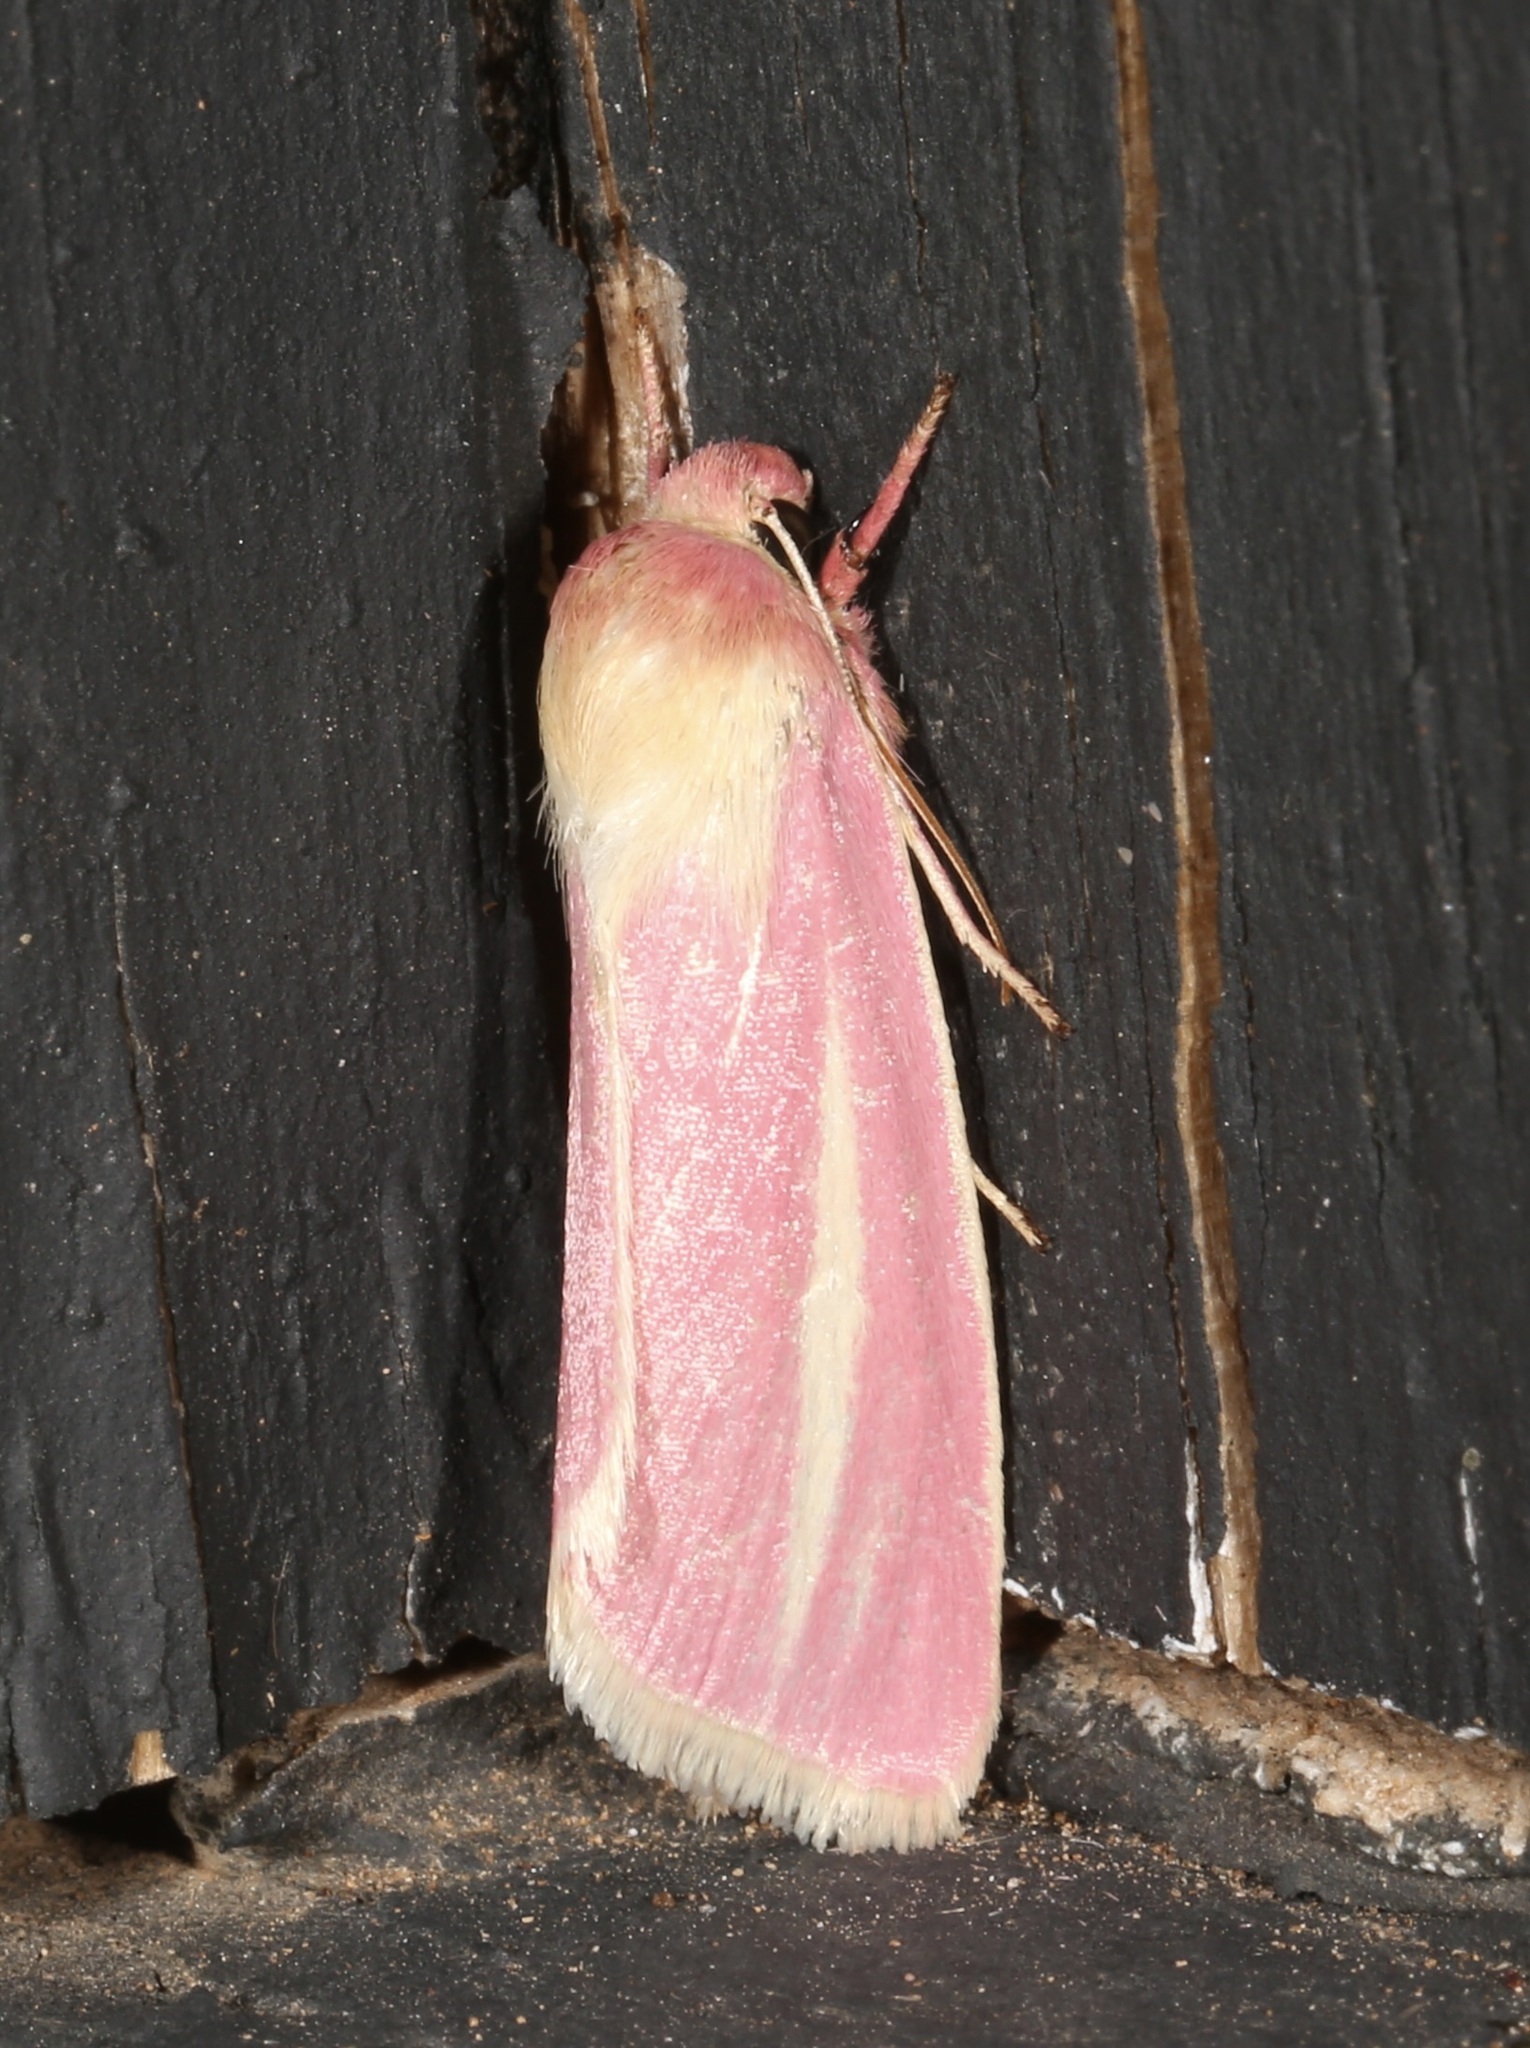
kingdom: Animalia
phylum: Arthropoda
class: Insecta
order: Lepidoptera
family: Noctuidae
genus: Heliocheilus
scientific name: Heliocheilus julia
